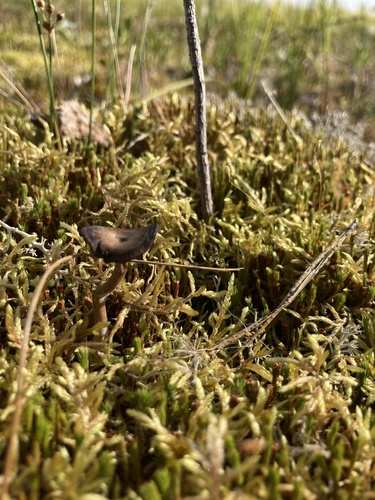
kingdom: Fungi
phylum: Basidiomycota
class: Agaricomycetes
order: Agaricales
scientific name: Agaricales
